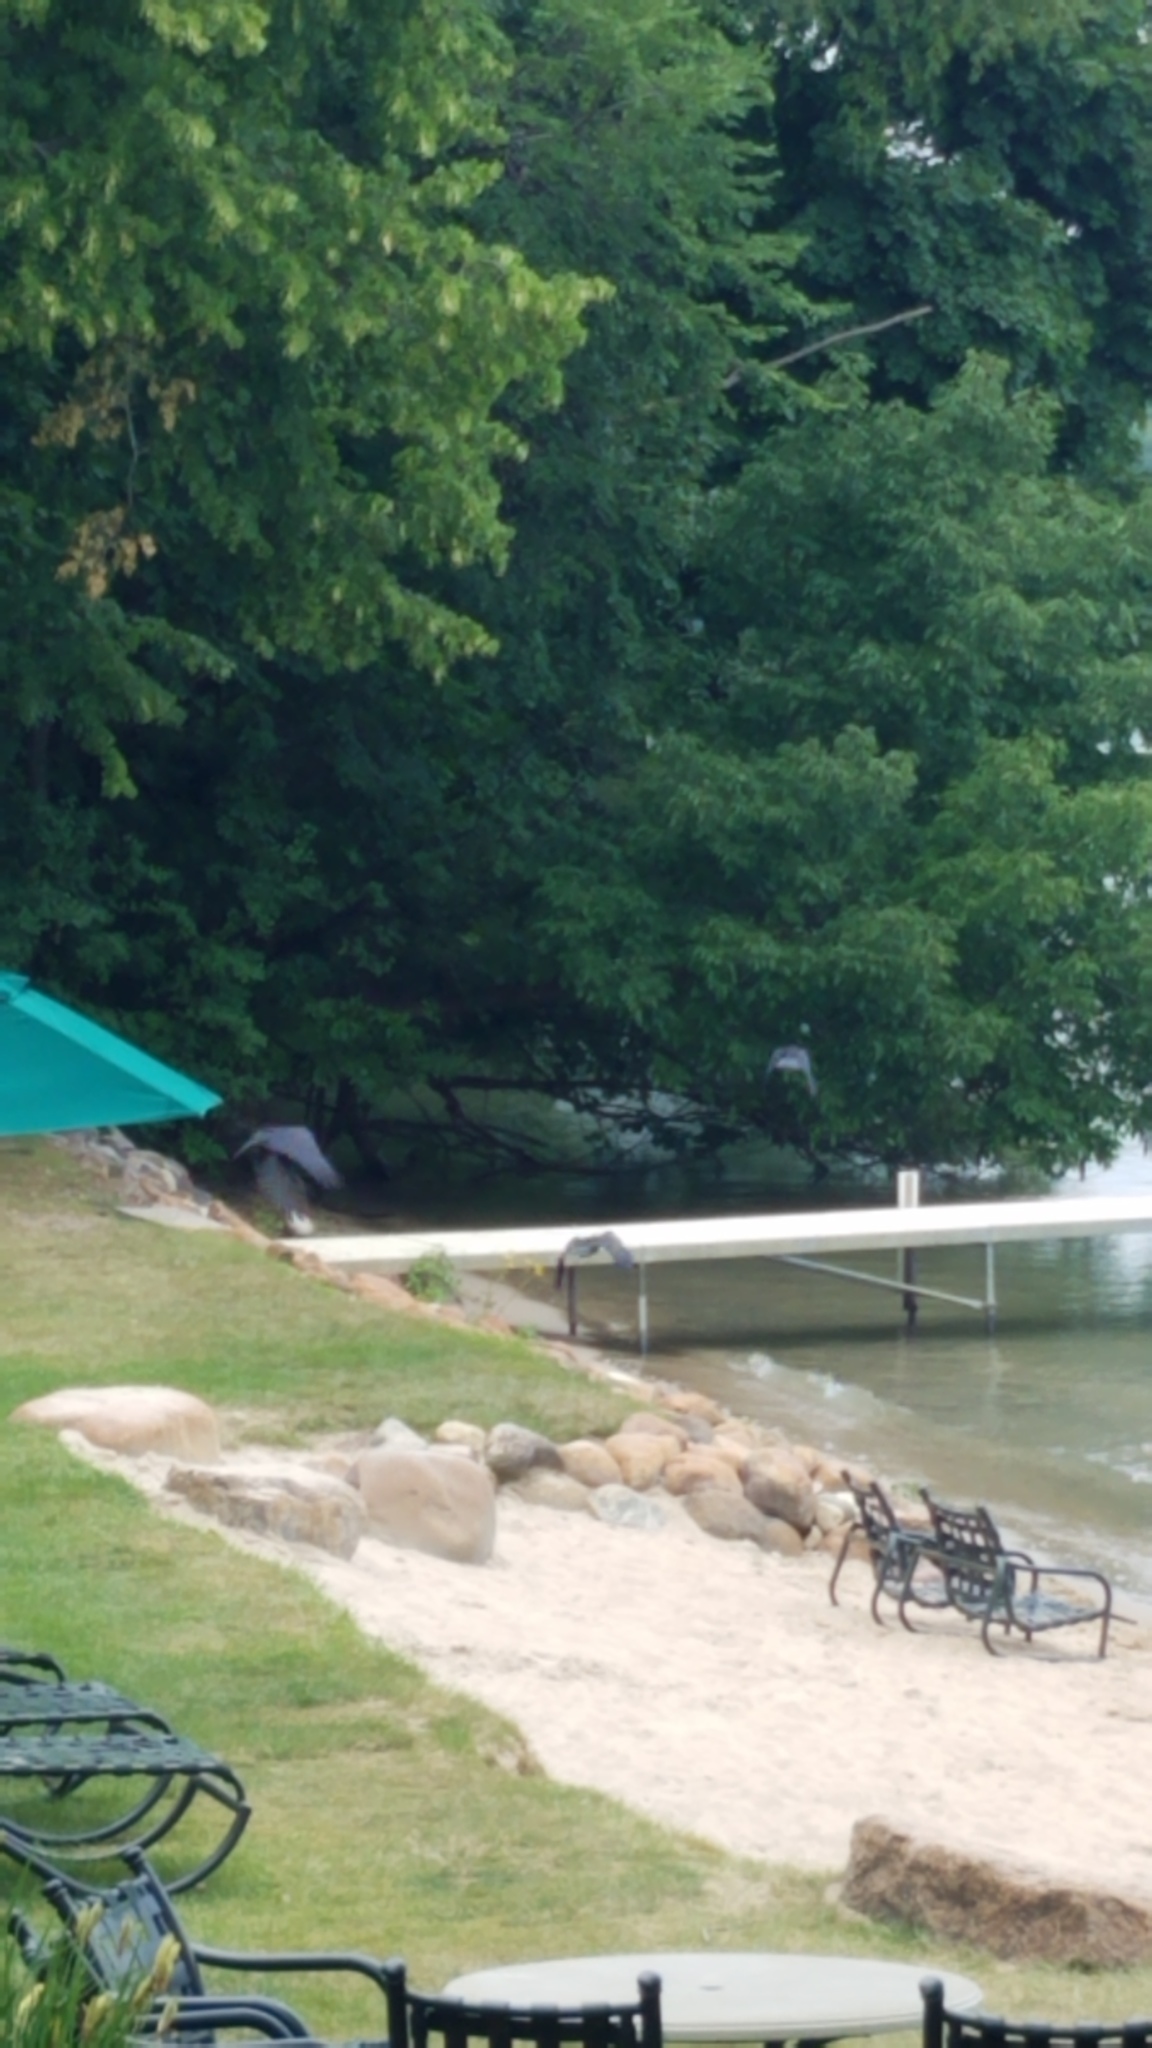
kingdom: Animalia
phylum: Chordata
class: Aves
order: Passeriformes
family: Corvidae
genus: Corvus
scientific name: Corvus brachyrhynchos
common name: American crow
